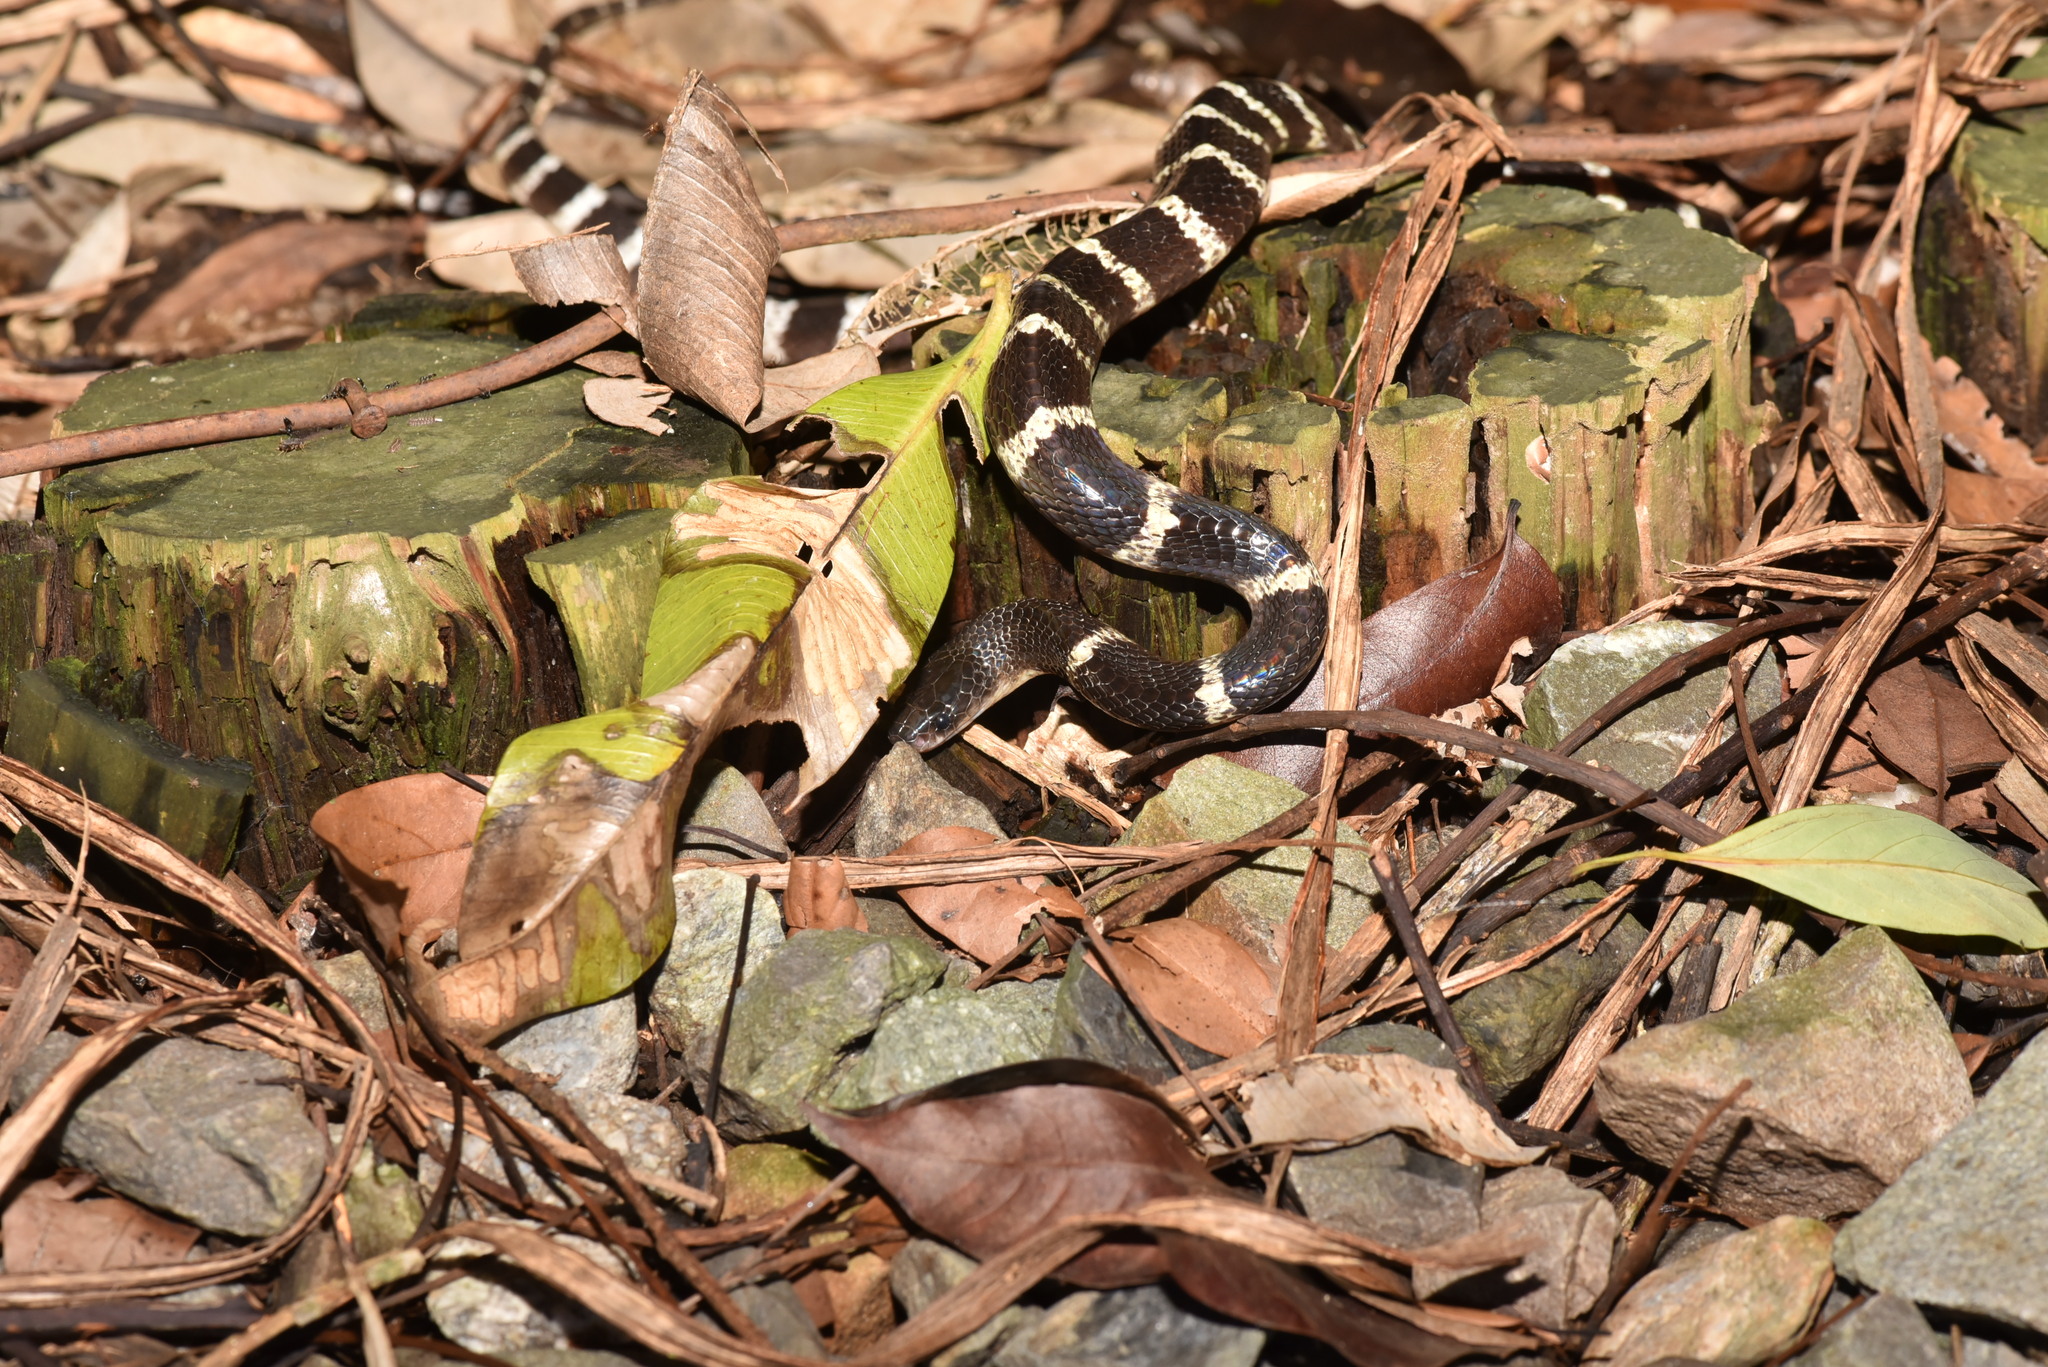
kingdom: Animalia
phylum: Chordata
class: Squamata
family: Elapidae
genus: Bungarus
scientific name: Bungarus multicinctus
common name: Many-banded krait
